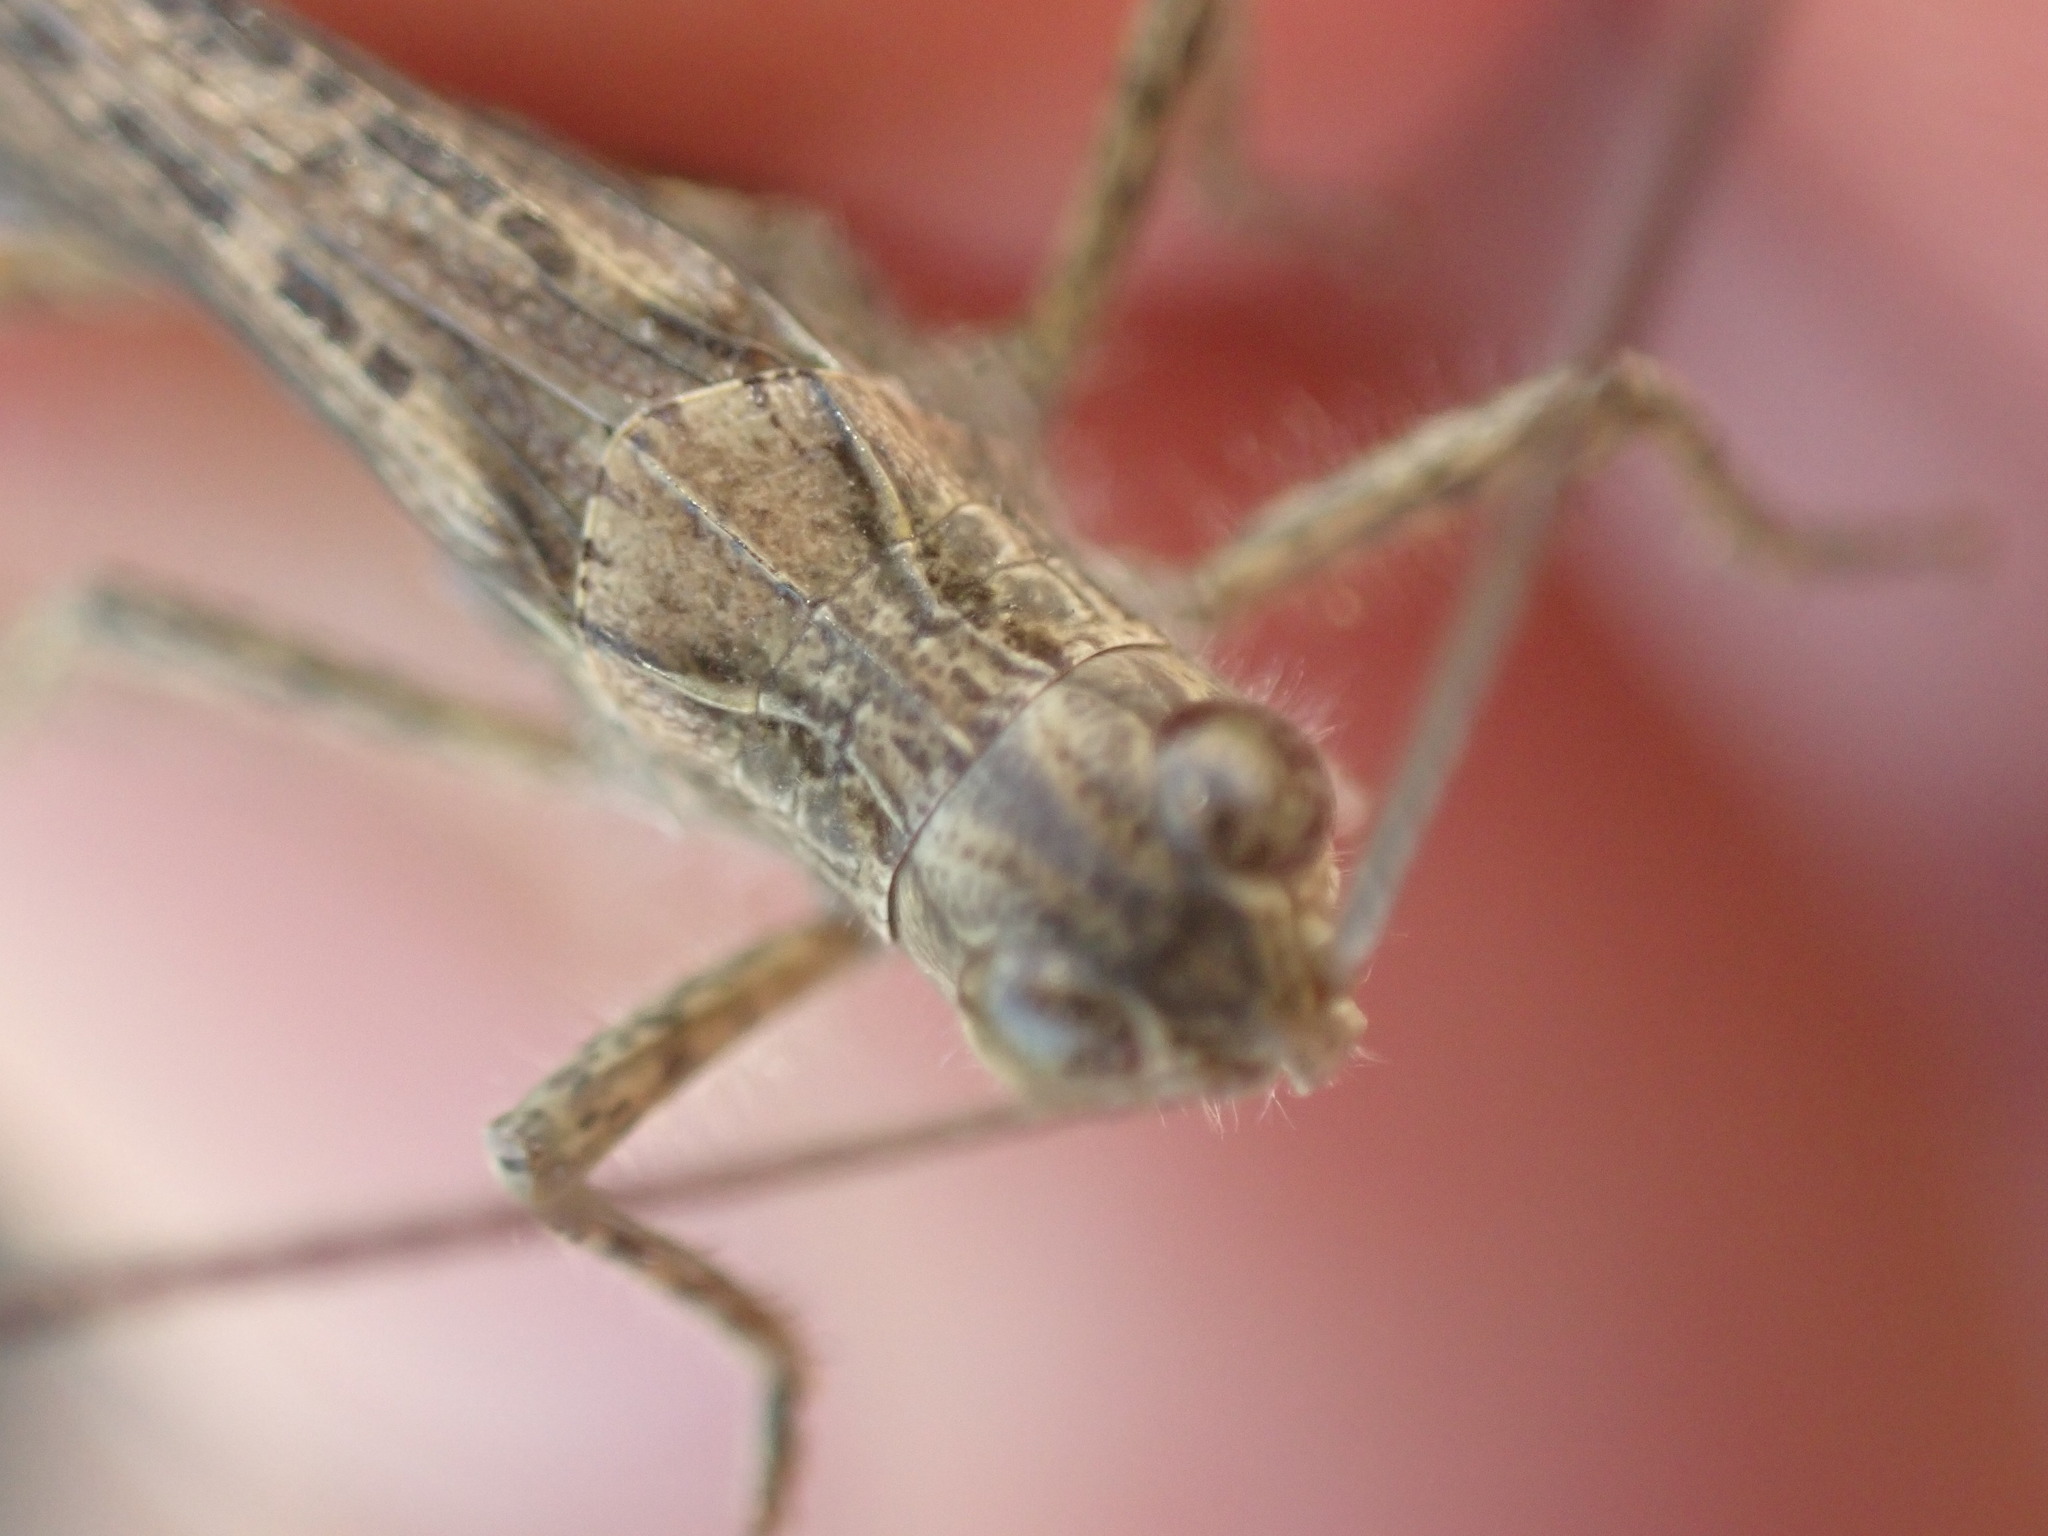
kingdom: Animalia
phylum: Arthropoda
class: Insecta
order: Orthoptera
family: Acrididae
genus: Chorthippus
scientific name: Chorthippus brunneus
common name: Field grasshopper
